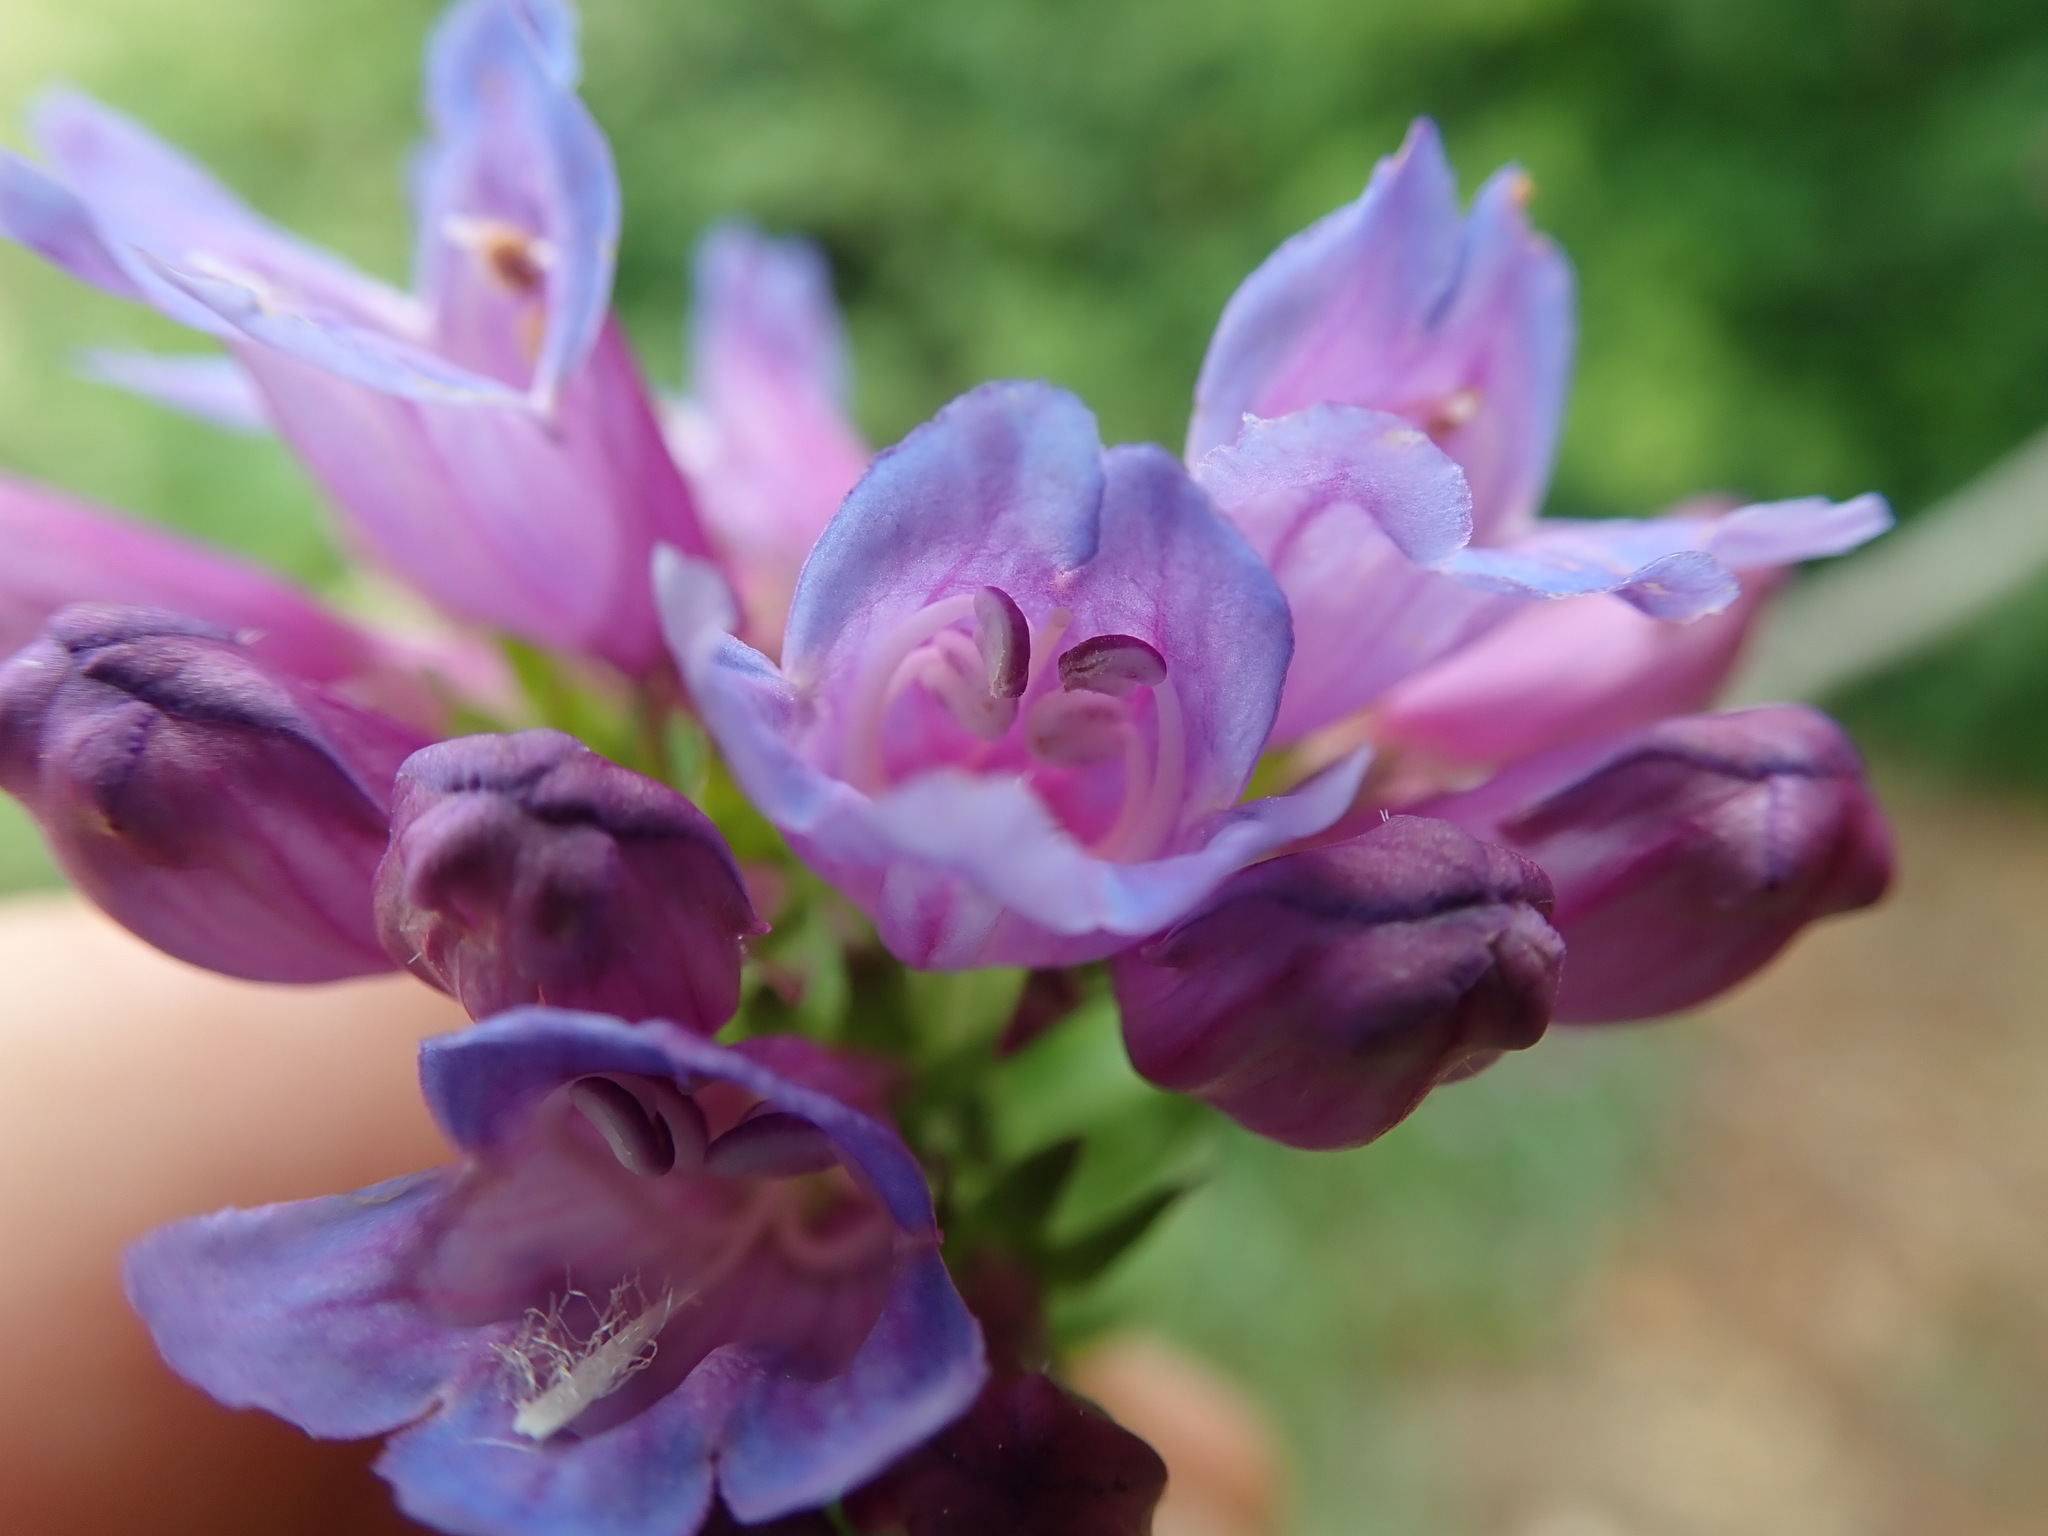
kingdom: Plantae
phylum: Tracheophyta
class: Magnoliopsida
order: Lamiales
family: Plantaginaceae
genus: Penstemon
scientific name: Penstemon serrulatus
